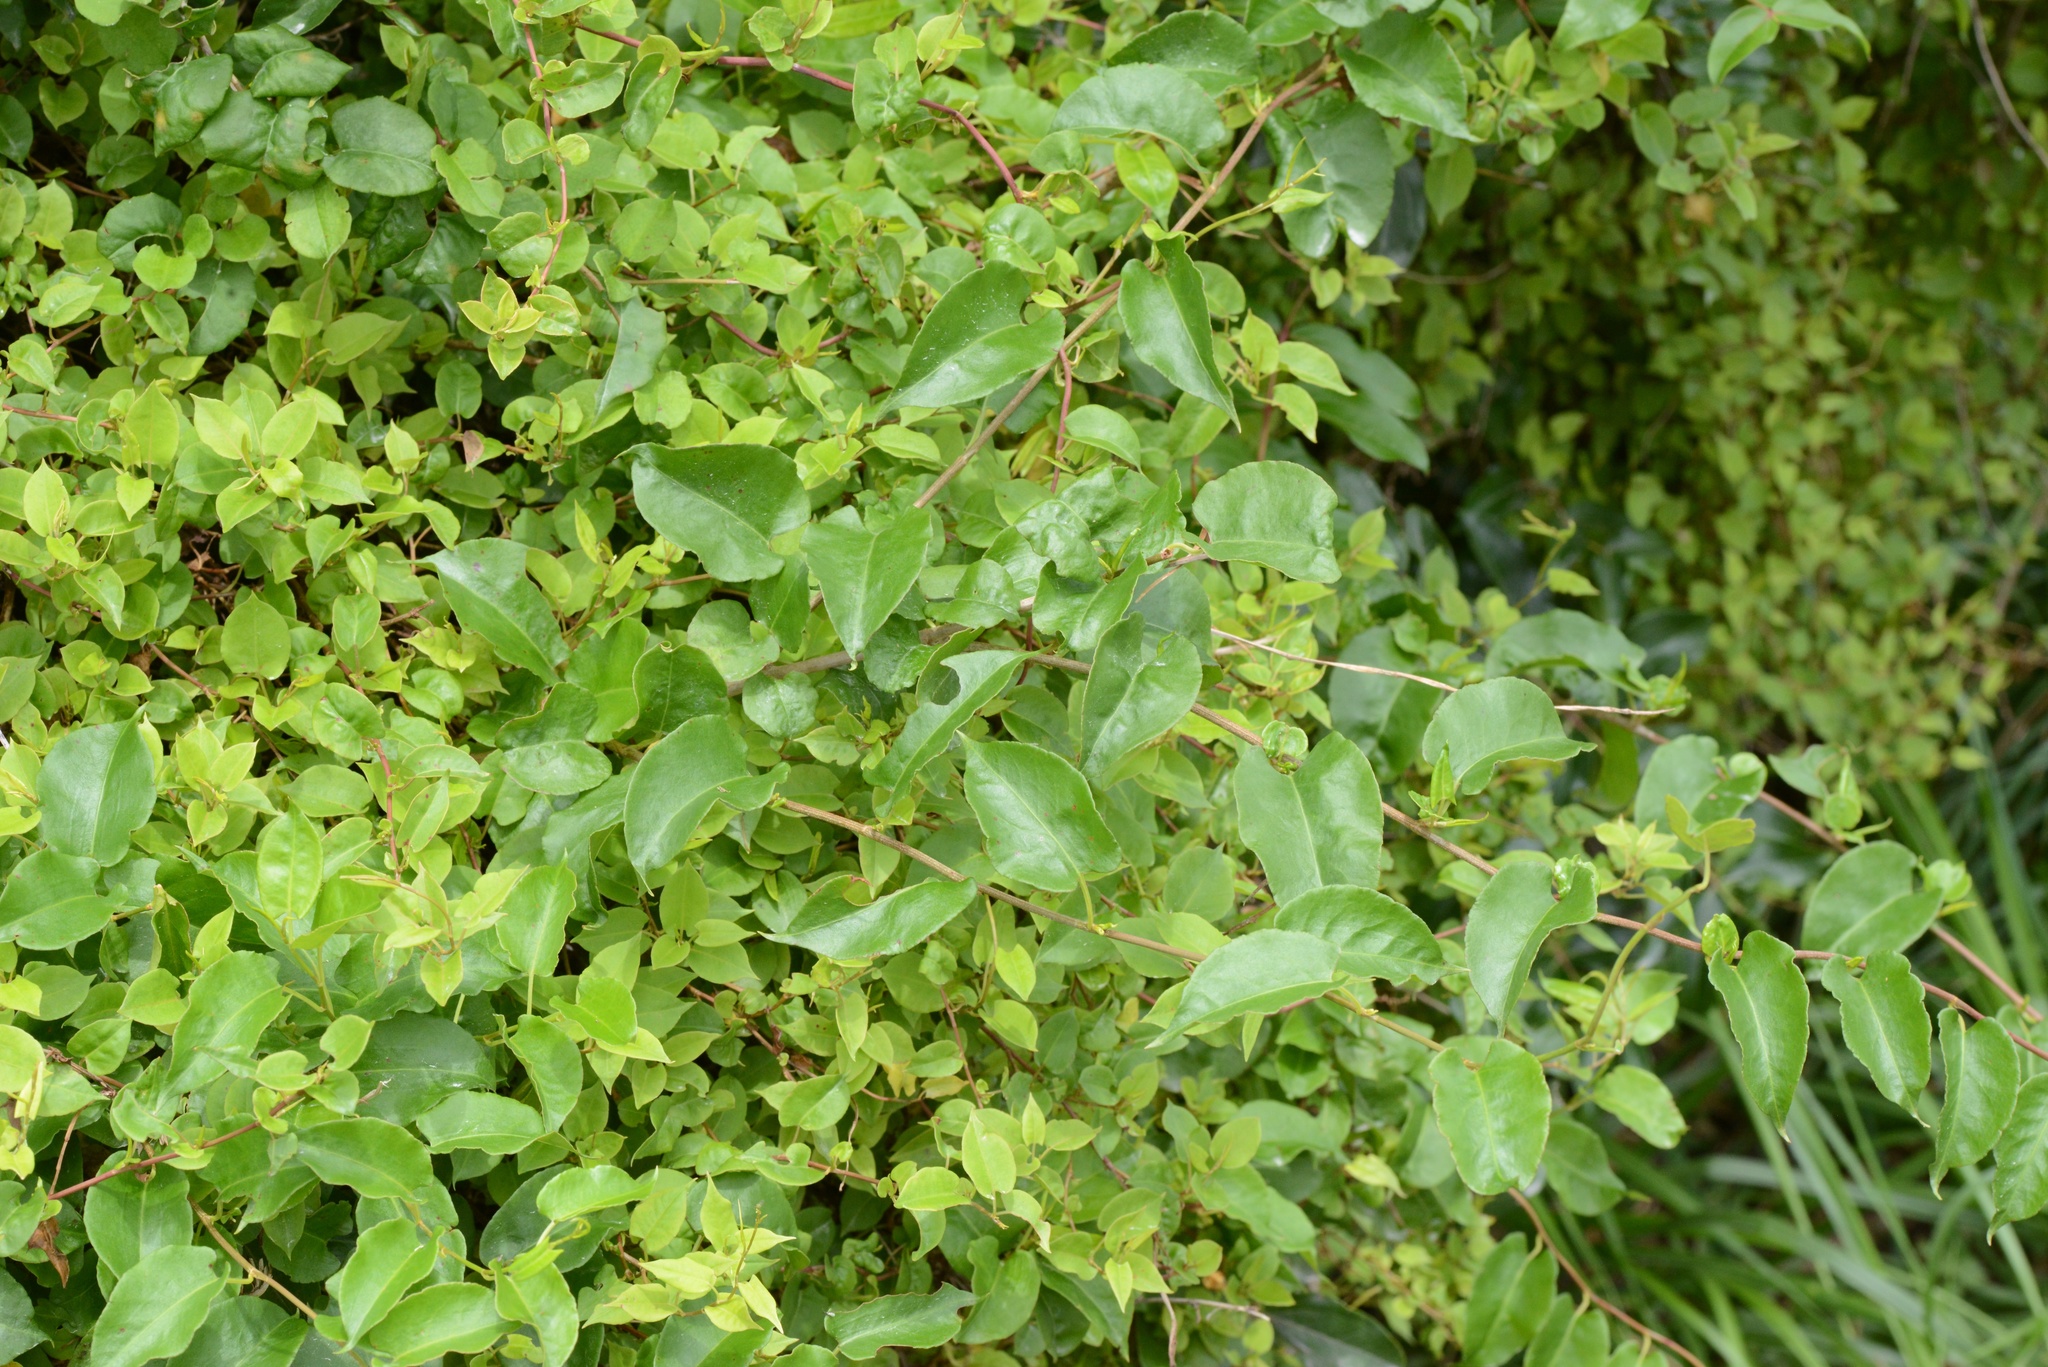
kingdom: Plantae
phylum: Tracheophyta
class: Magnoliopsida
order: Caryophyllales
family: Polygonaceae
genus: Muehlenbeckia
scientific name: Muehlenbeckia australis
